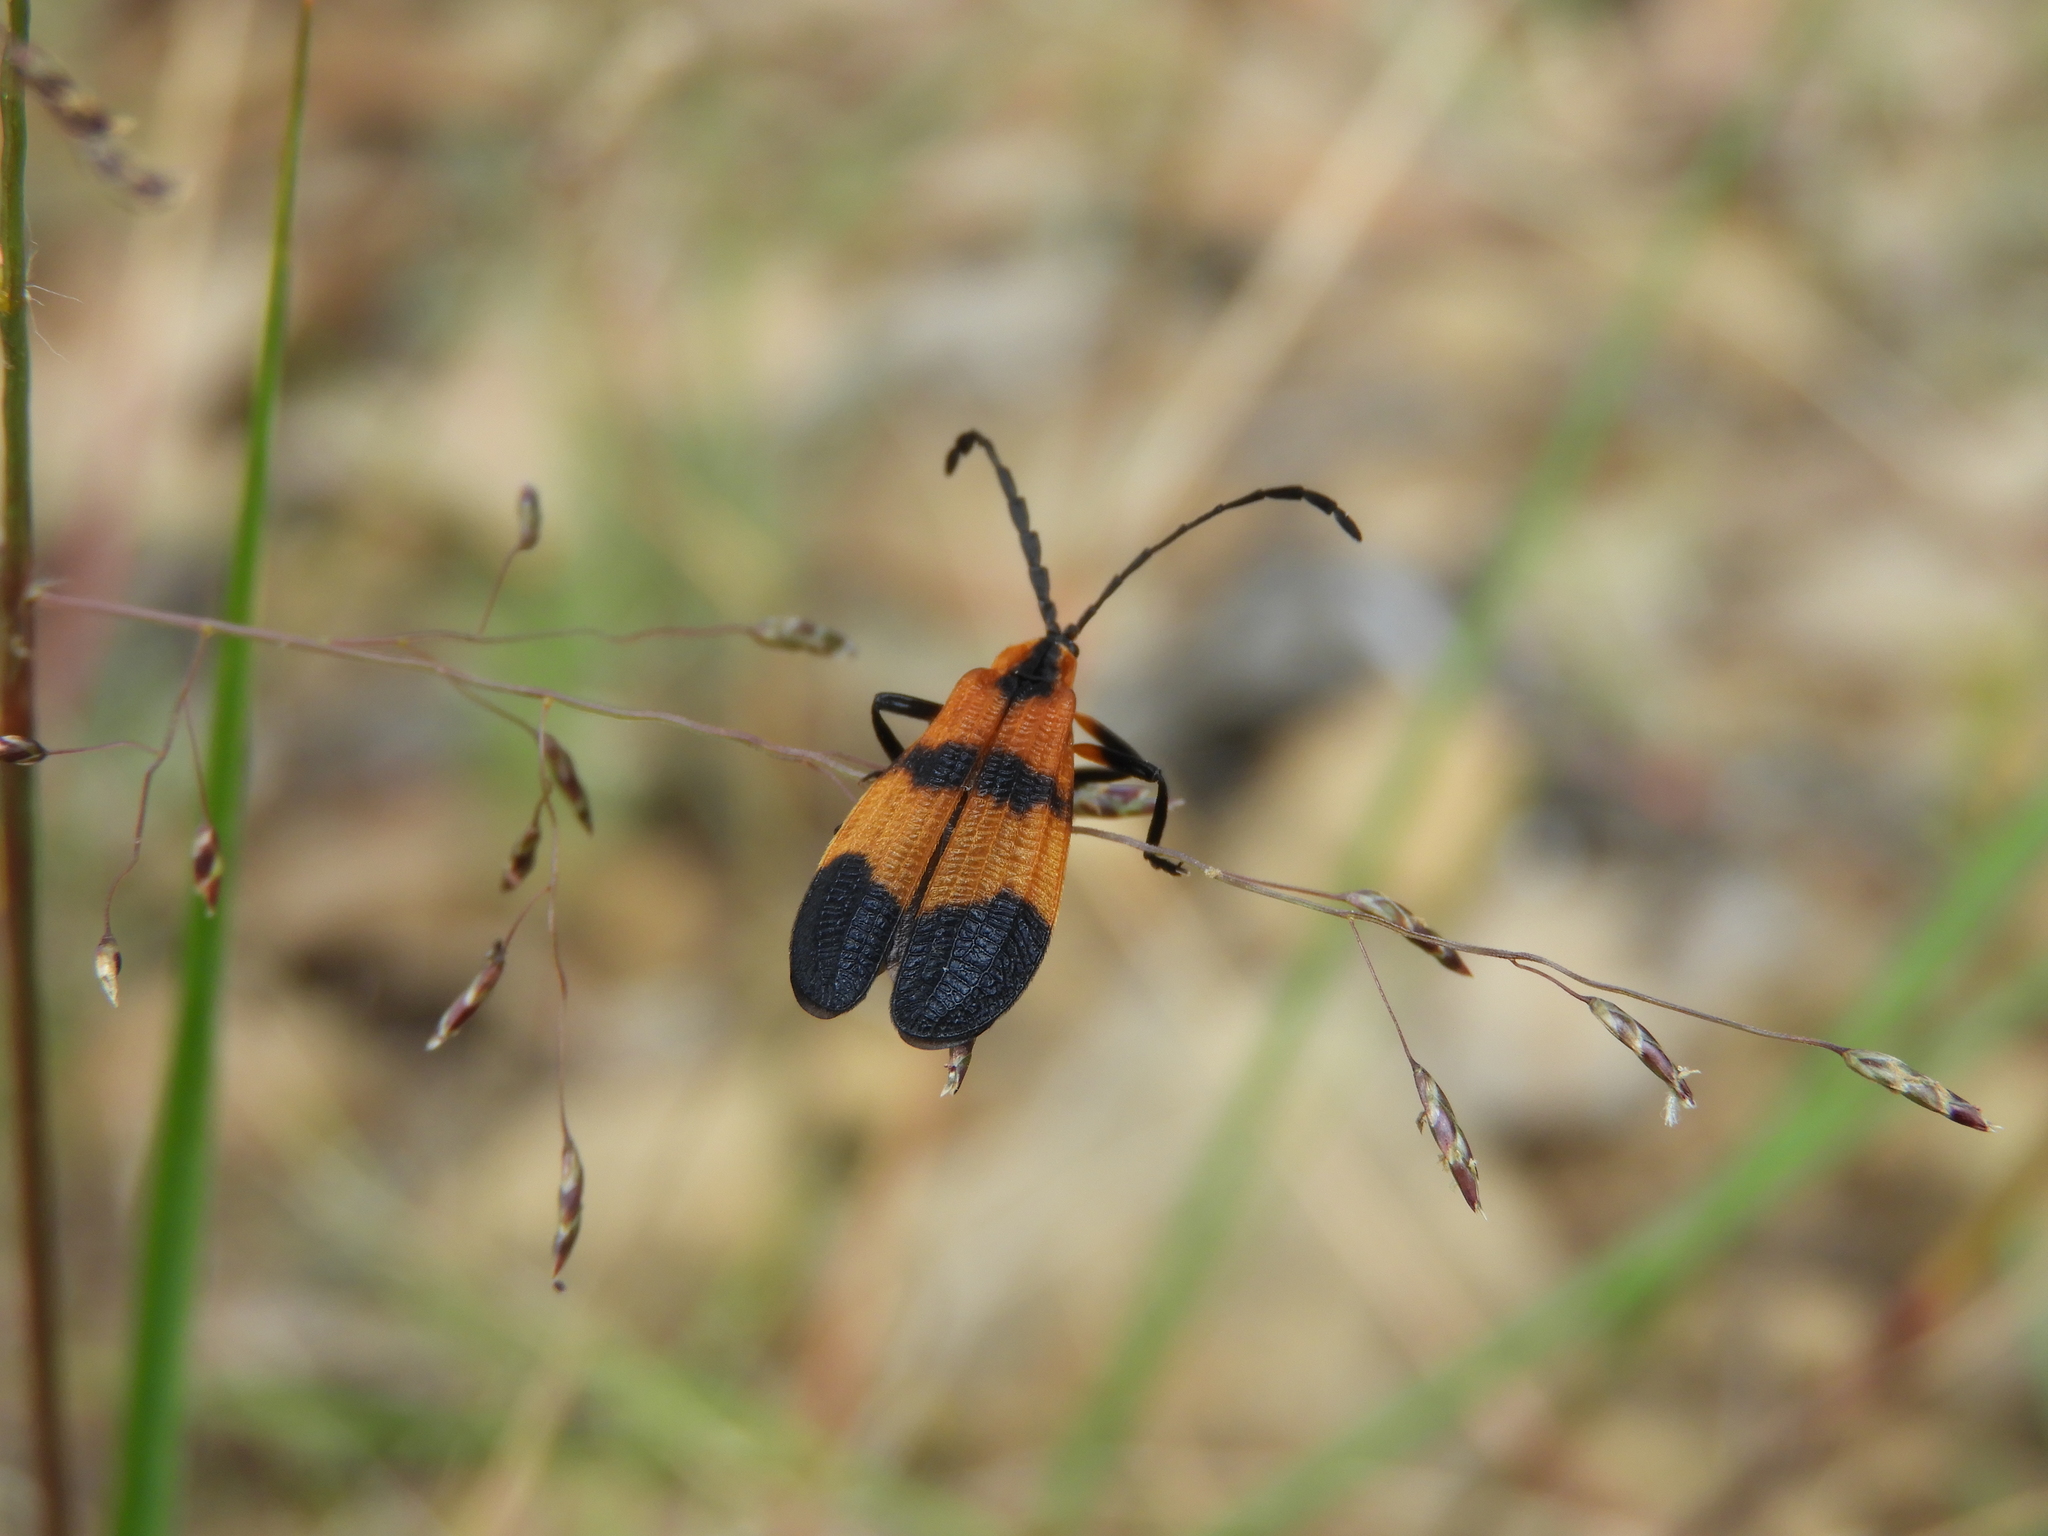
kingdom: Animalia
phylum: Arthropoda
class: Insecta
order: Coleoptera
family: Lycidae
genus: Calopteron
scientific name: Calopteron reticulatum
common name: Banded net-winged beetle
